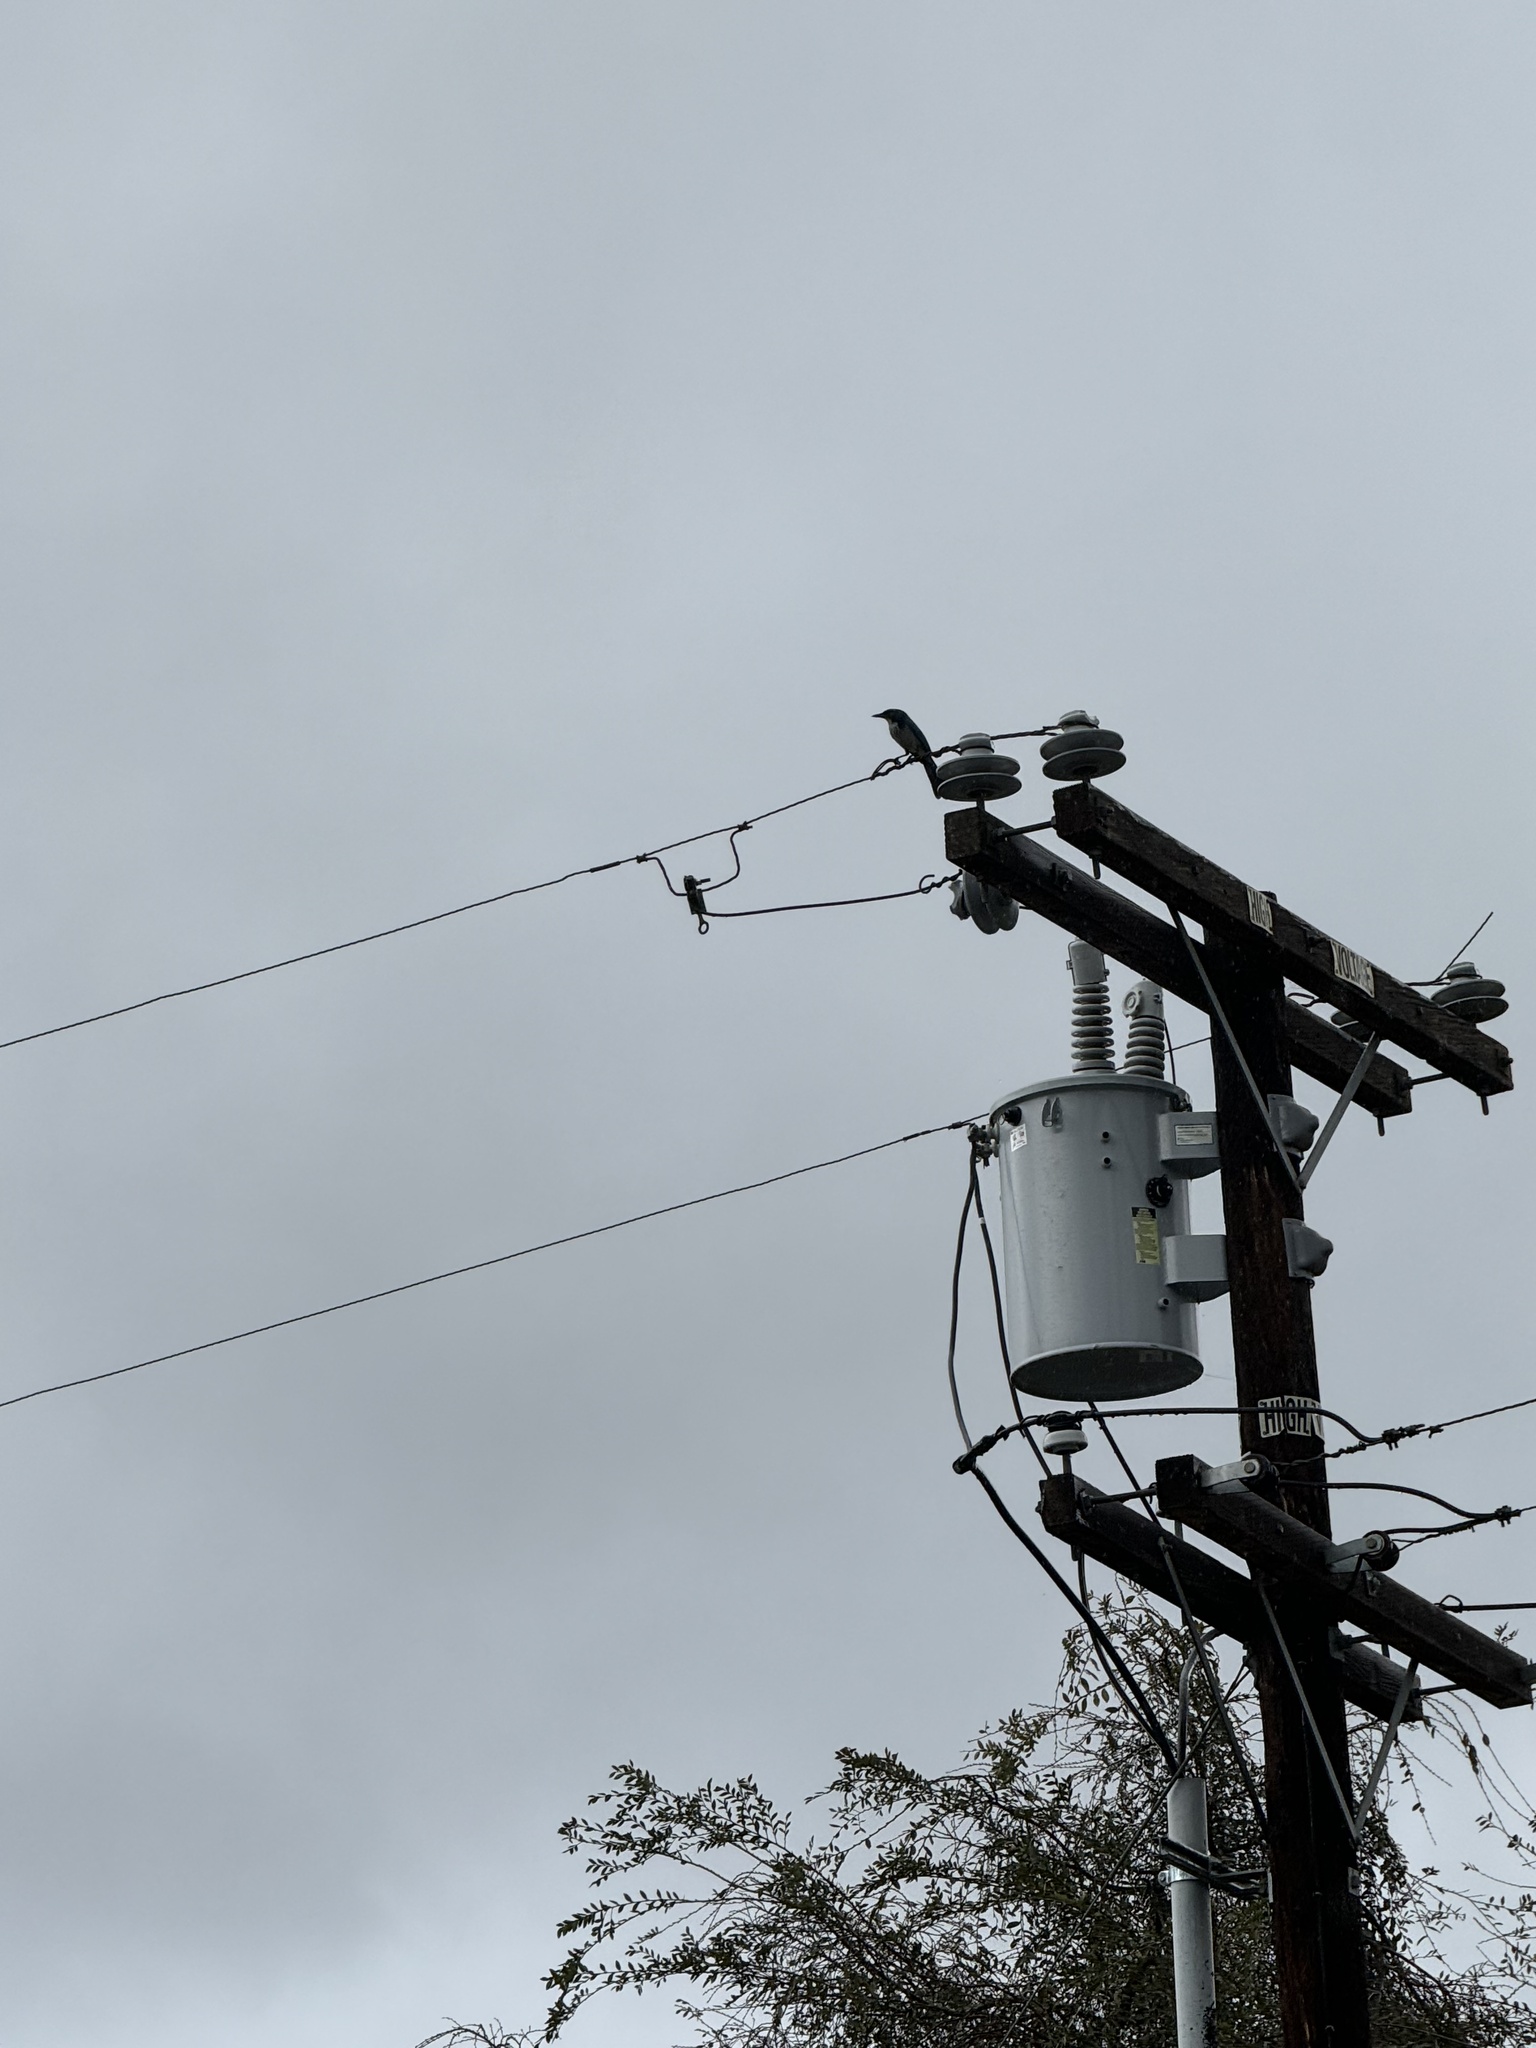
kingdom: Animalia
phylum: Chordata
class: Aves
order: Passeriformes
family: Corvidae
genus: Aphelocoma
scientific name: Aphelocoma californica
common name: California scrub-jay
